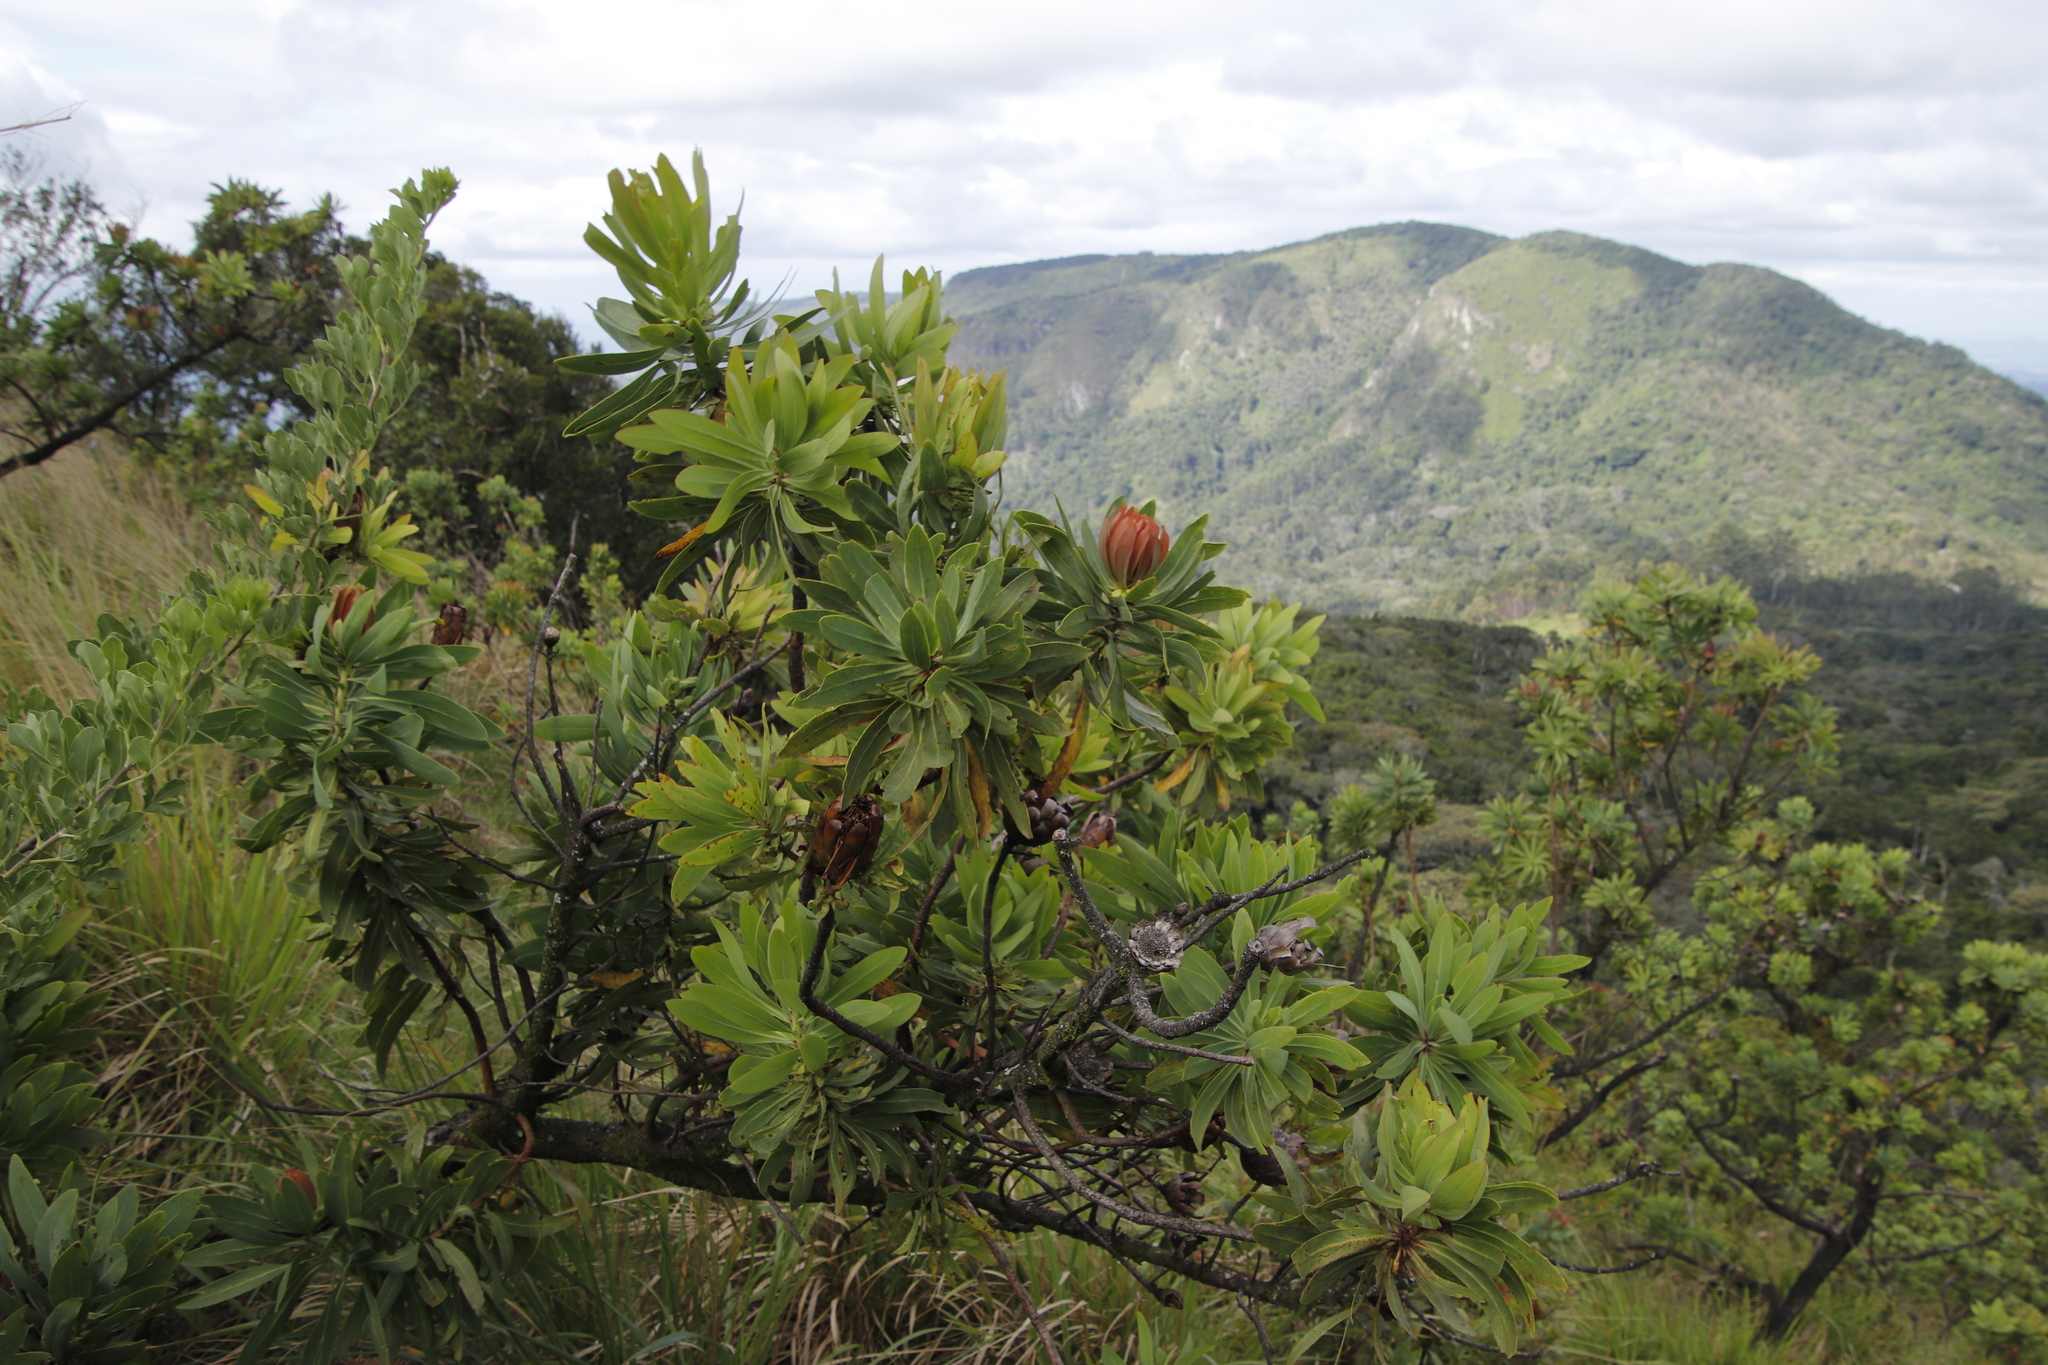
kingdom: Plantae
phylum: Tracheophyta
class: Magnoliopsida
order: Proteales
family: Proteaceae
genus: Protea
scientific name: Protea caffra
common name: Common sugarbush
